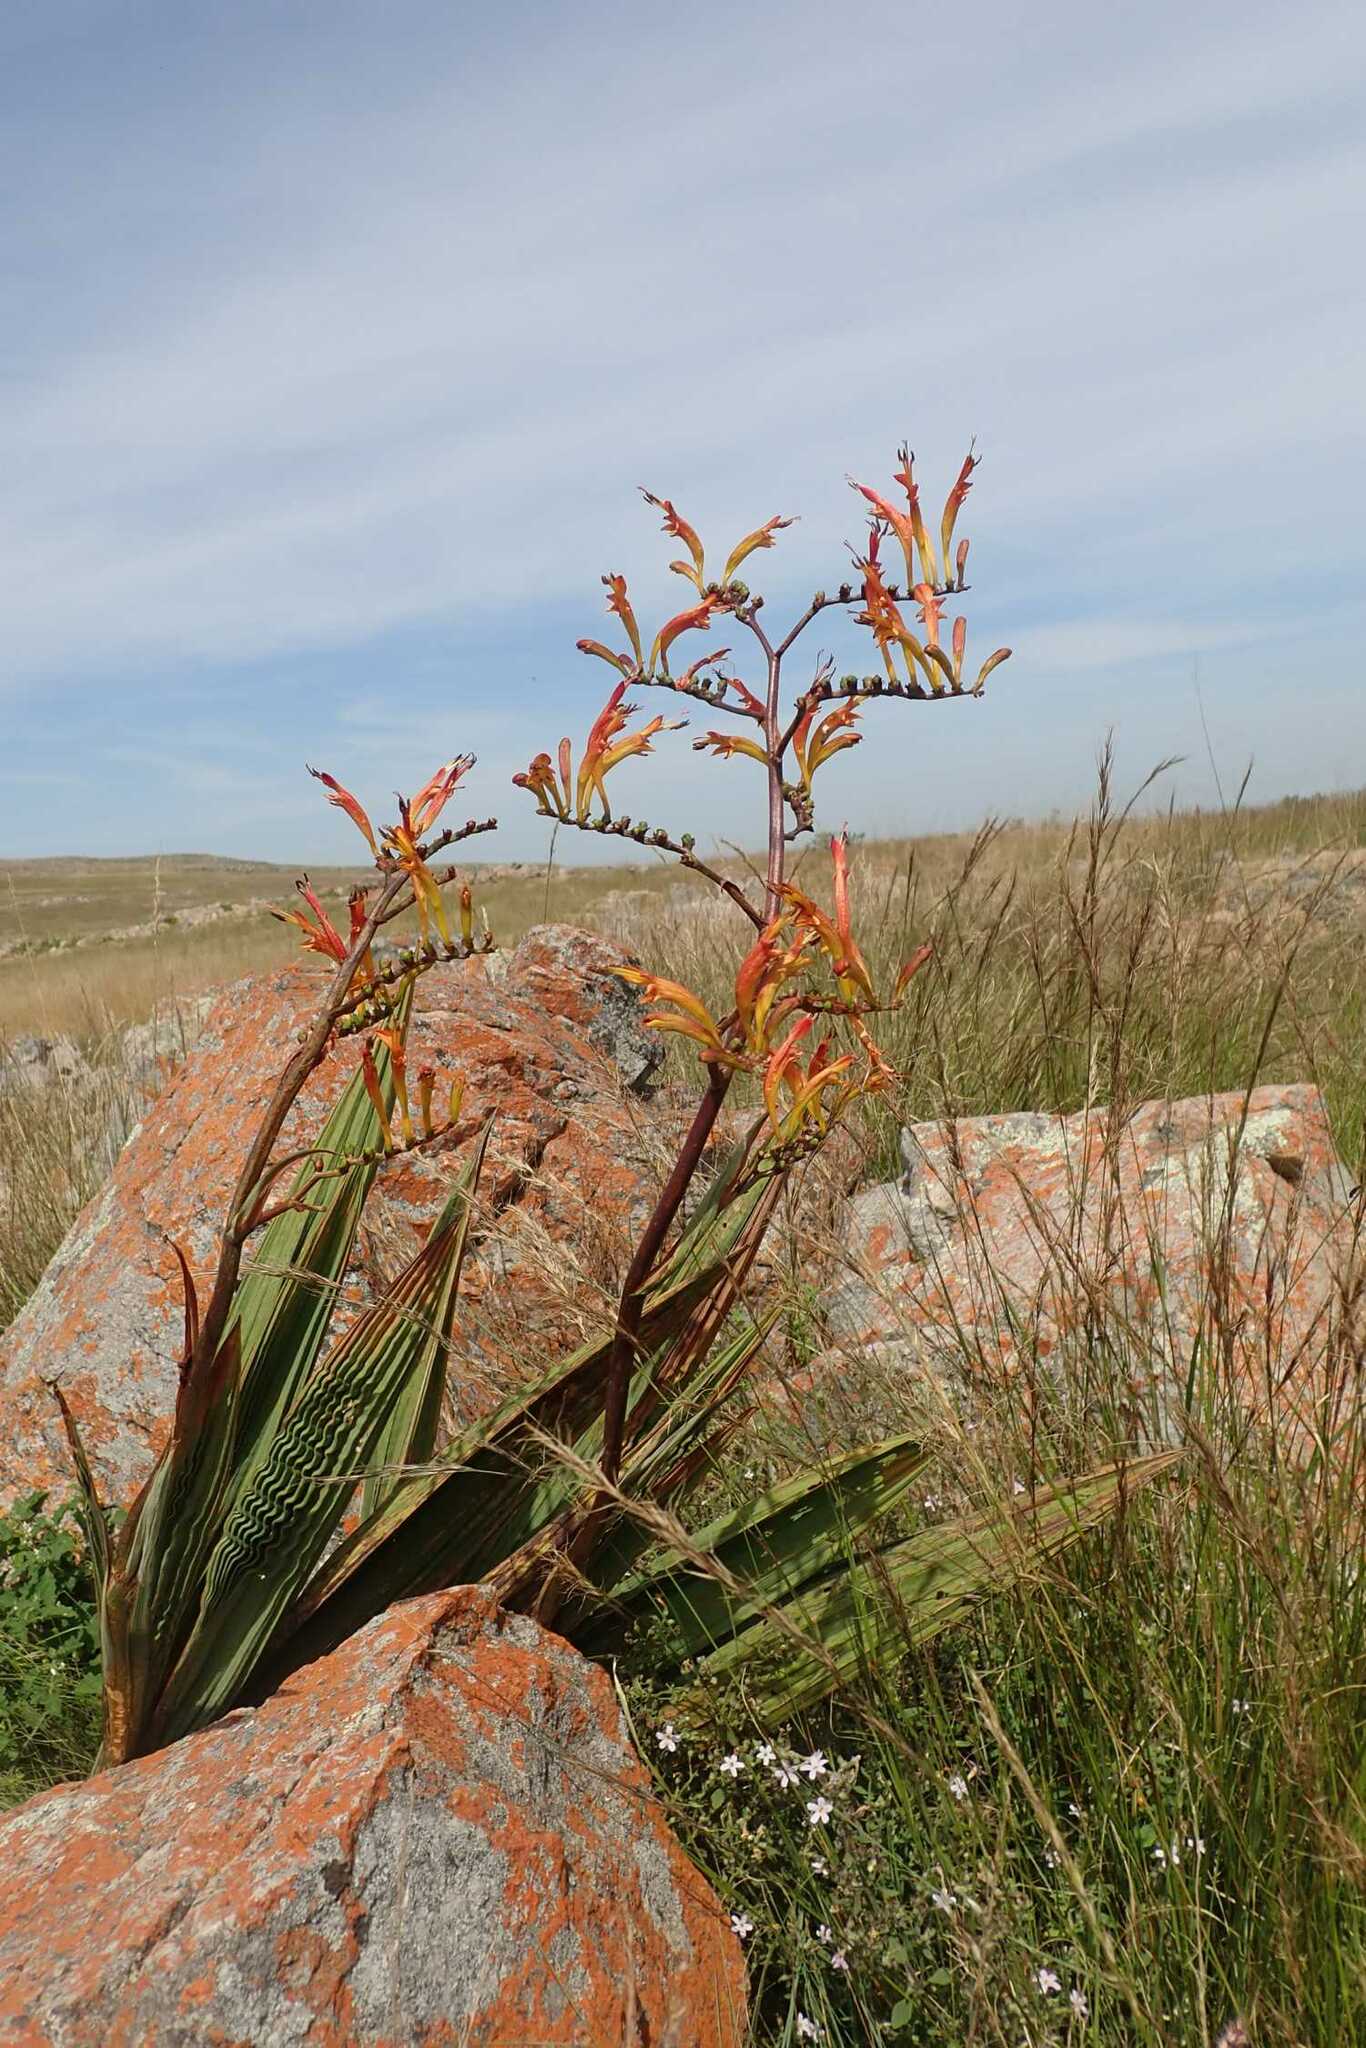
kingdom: Plantae
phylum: Tracheophyta
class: Liliopsida
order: Asparagales
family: Iridaceae
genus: Crocosmia
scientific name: Crocosmia paniculata
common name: Aunt eliza
